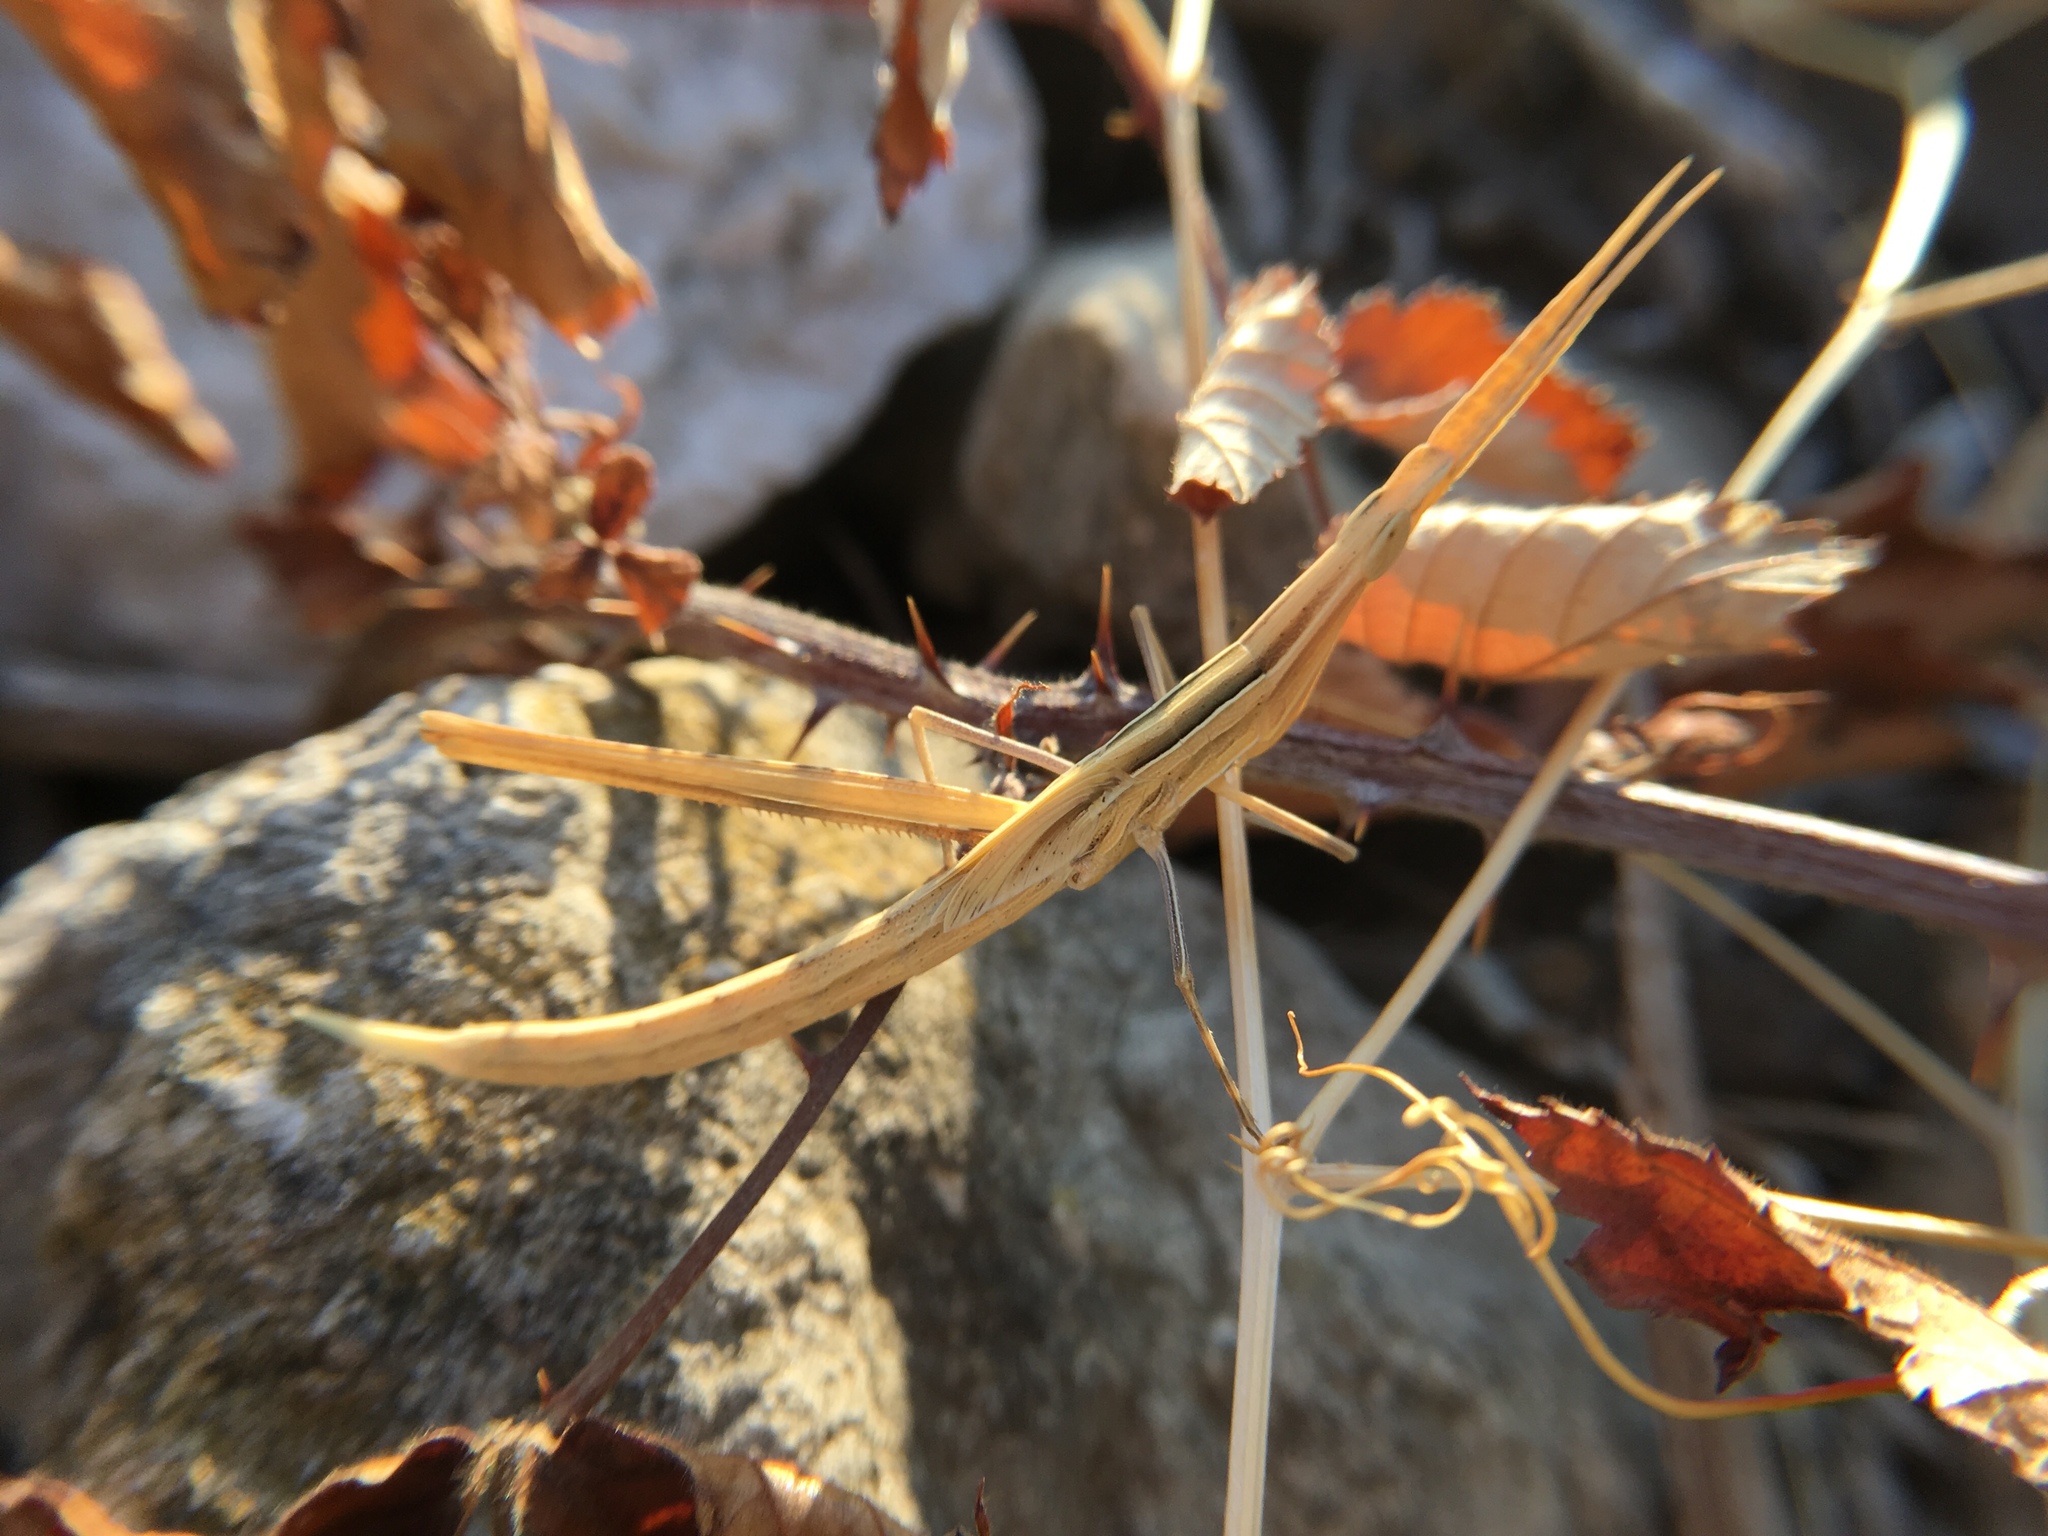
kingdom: Animalia
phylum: Arthropoda
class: Insecta
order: Orthoptera
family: Acrididae
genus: Acrida
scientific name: Acrida ungarica
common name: Common cone-headed grasshopper
